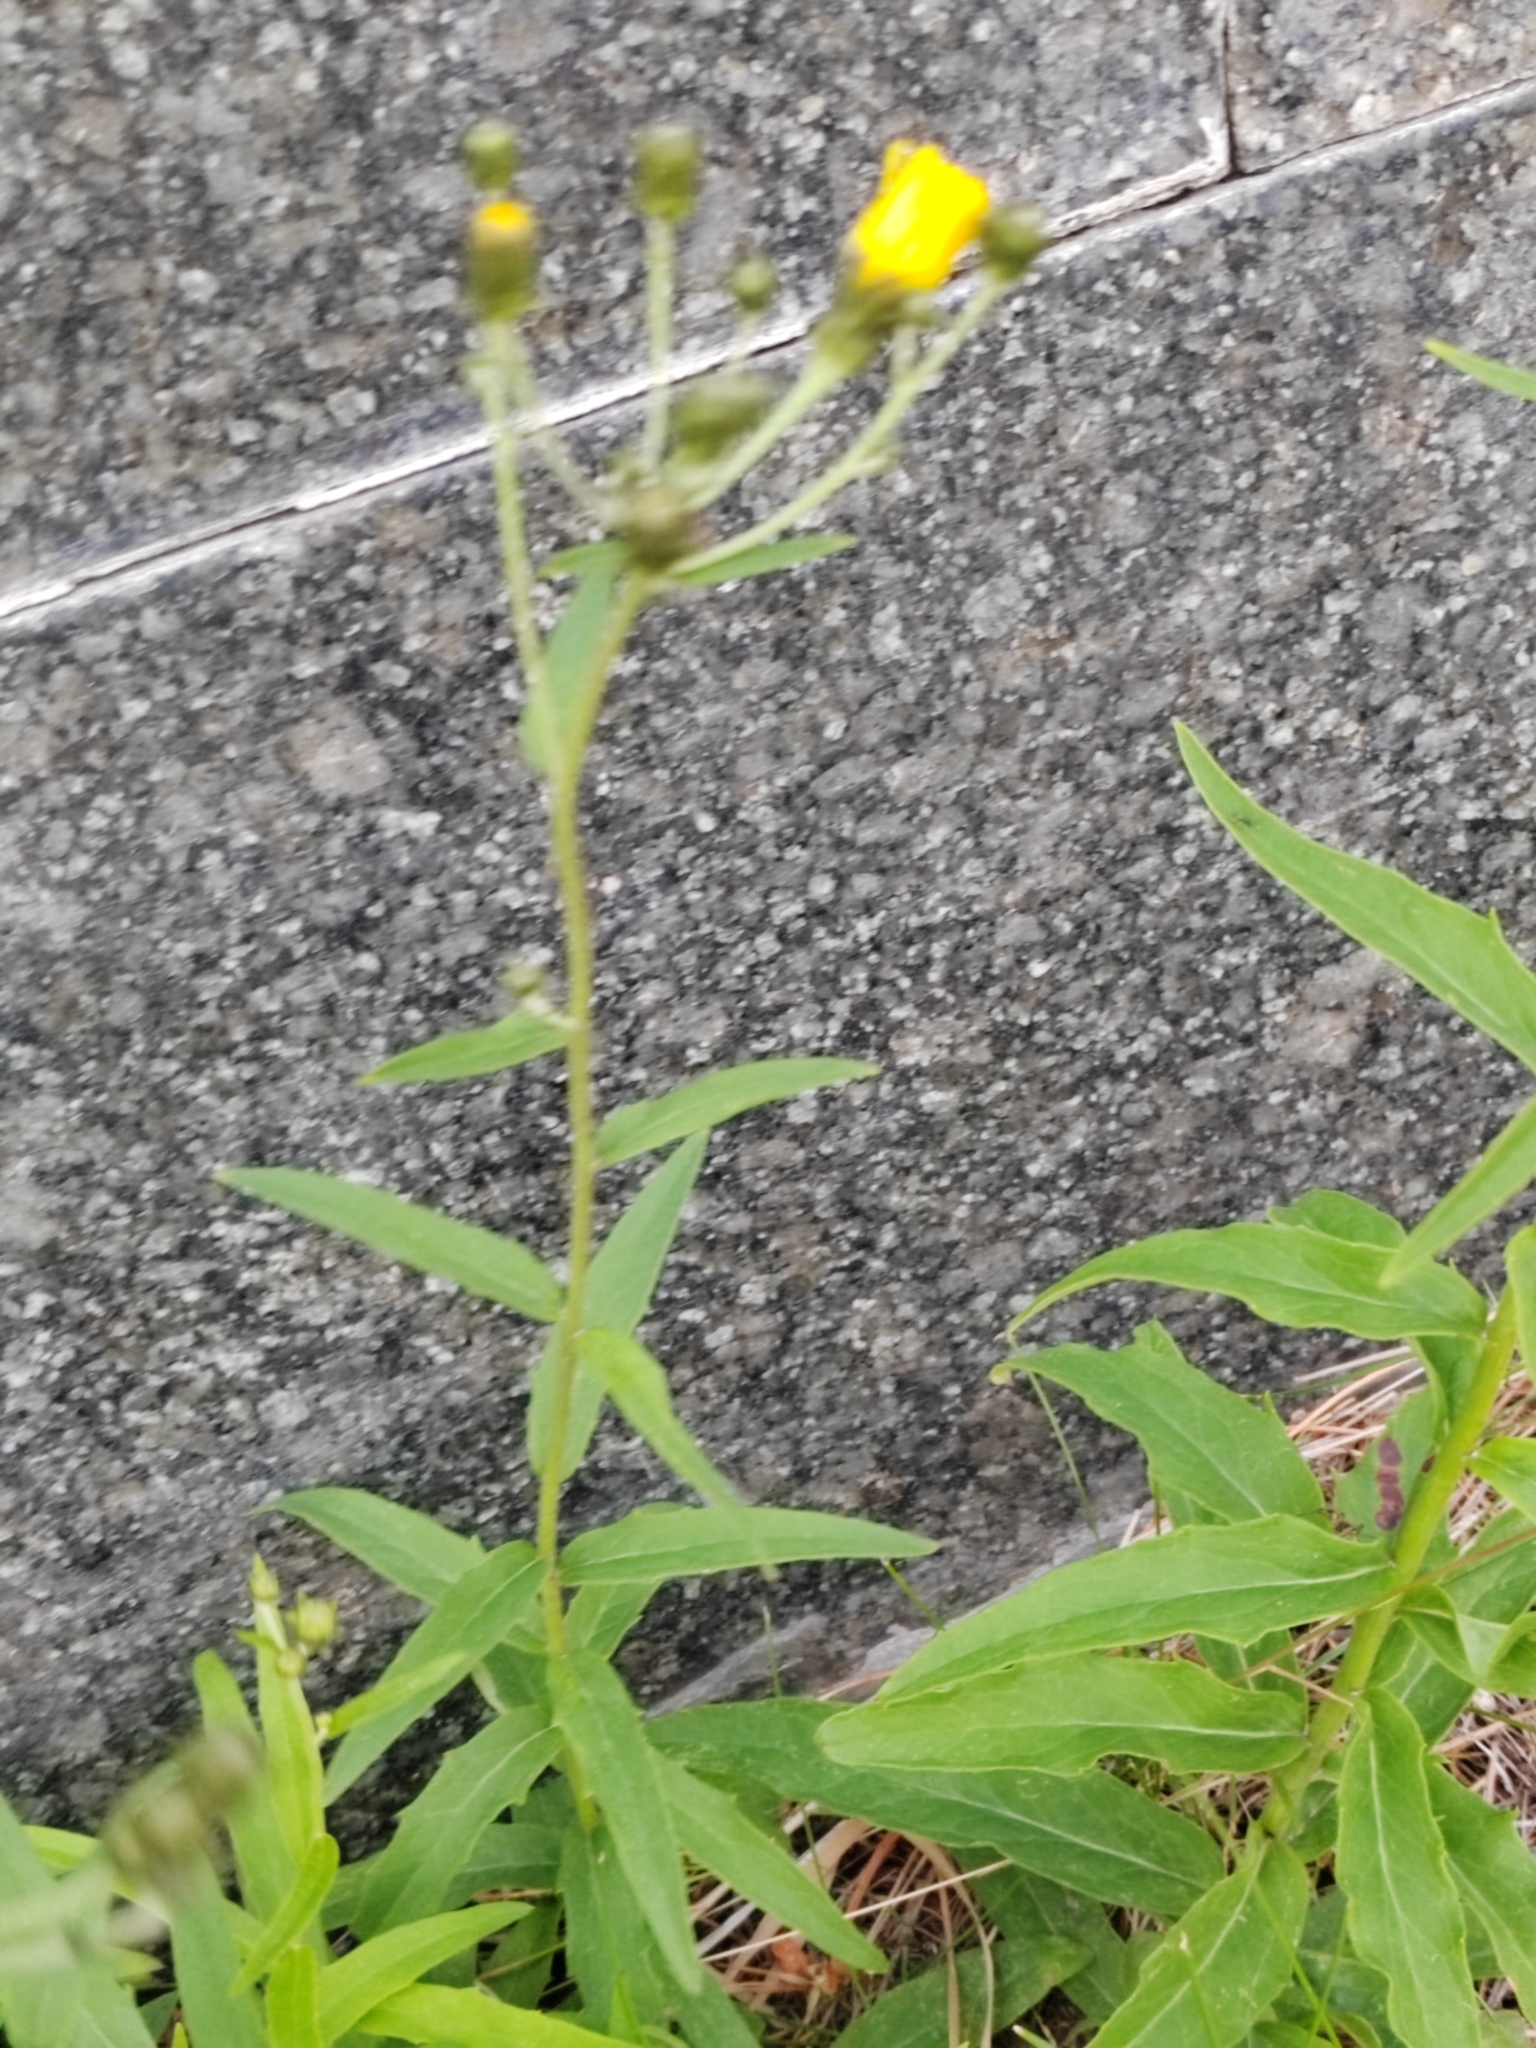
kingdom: Plantae
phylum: Tracheophyta
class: Magnoliopsida
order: Asterales
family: Asteraceae
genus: Hieracium
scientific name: Hieracium umbellatum
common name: Northern hawkweed
